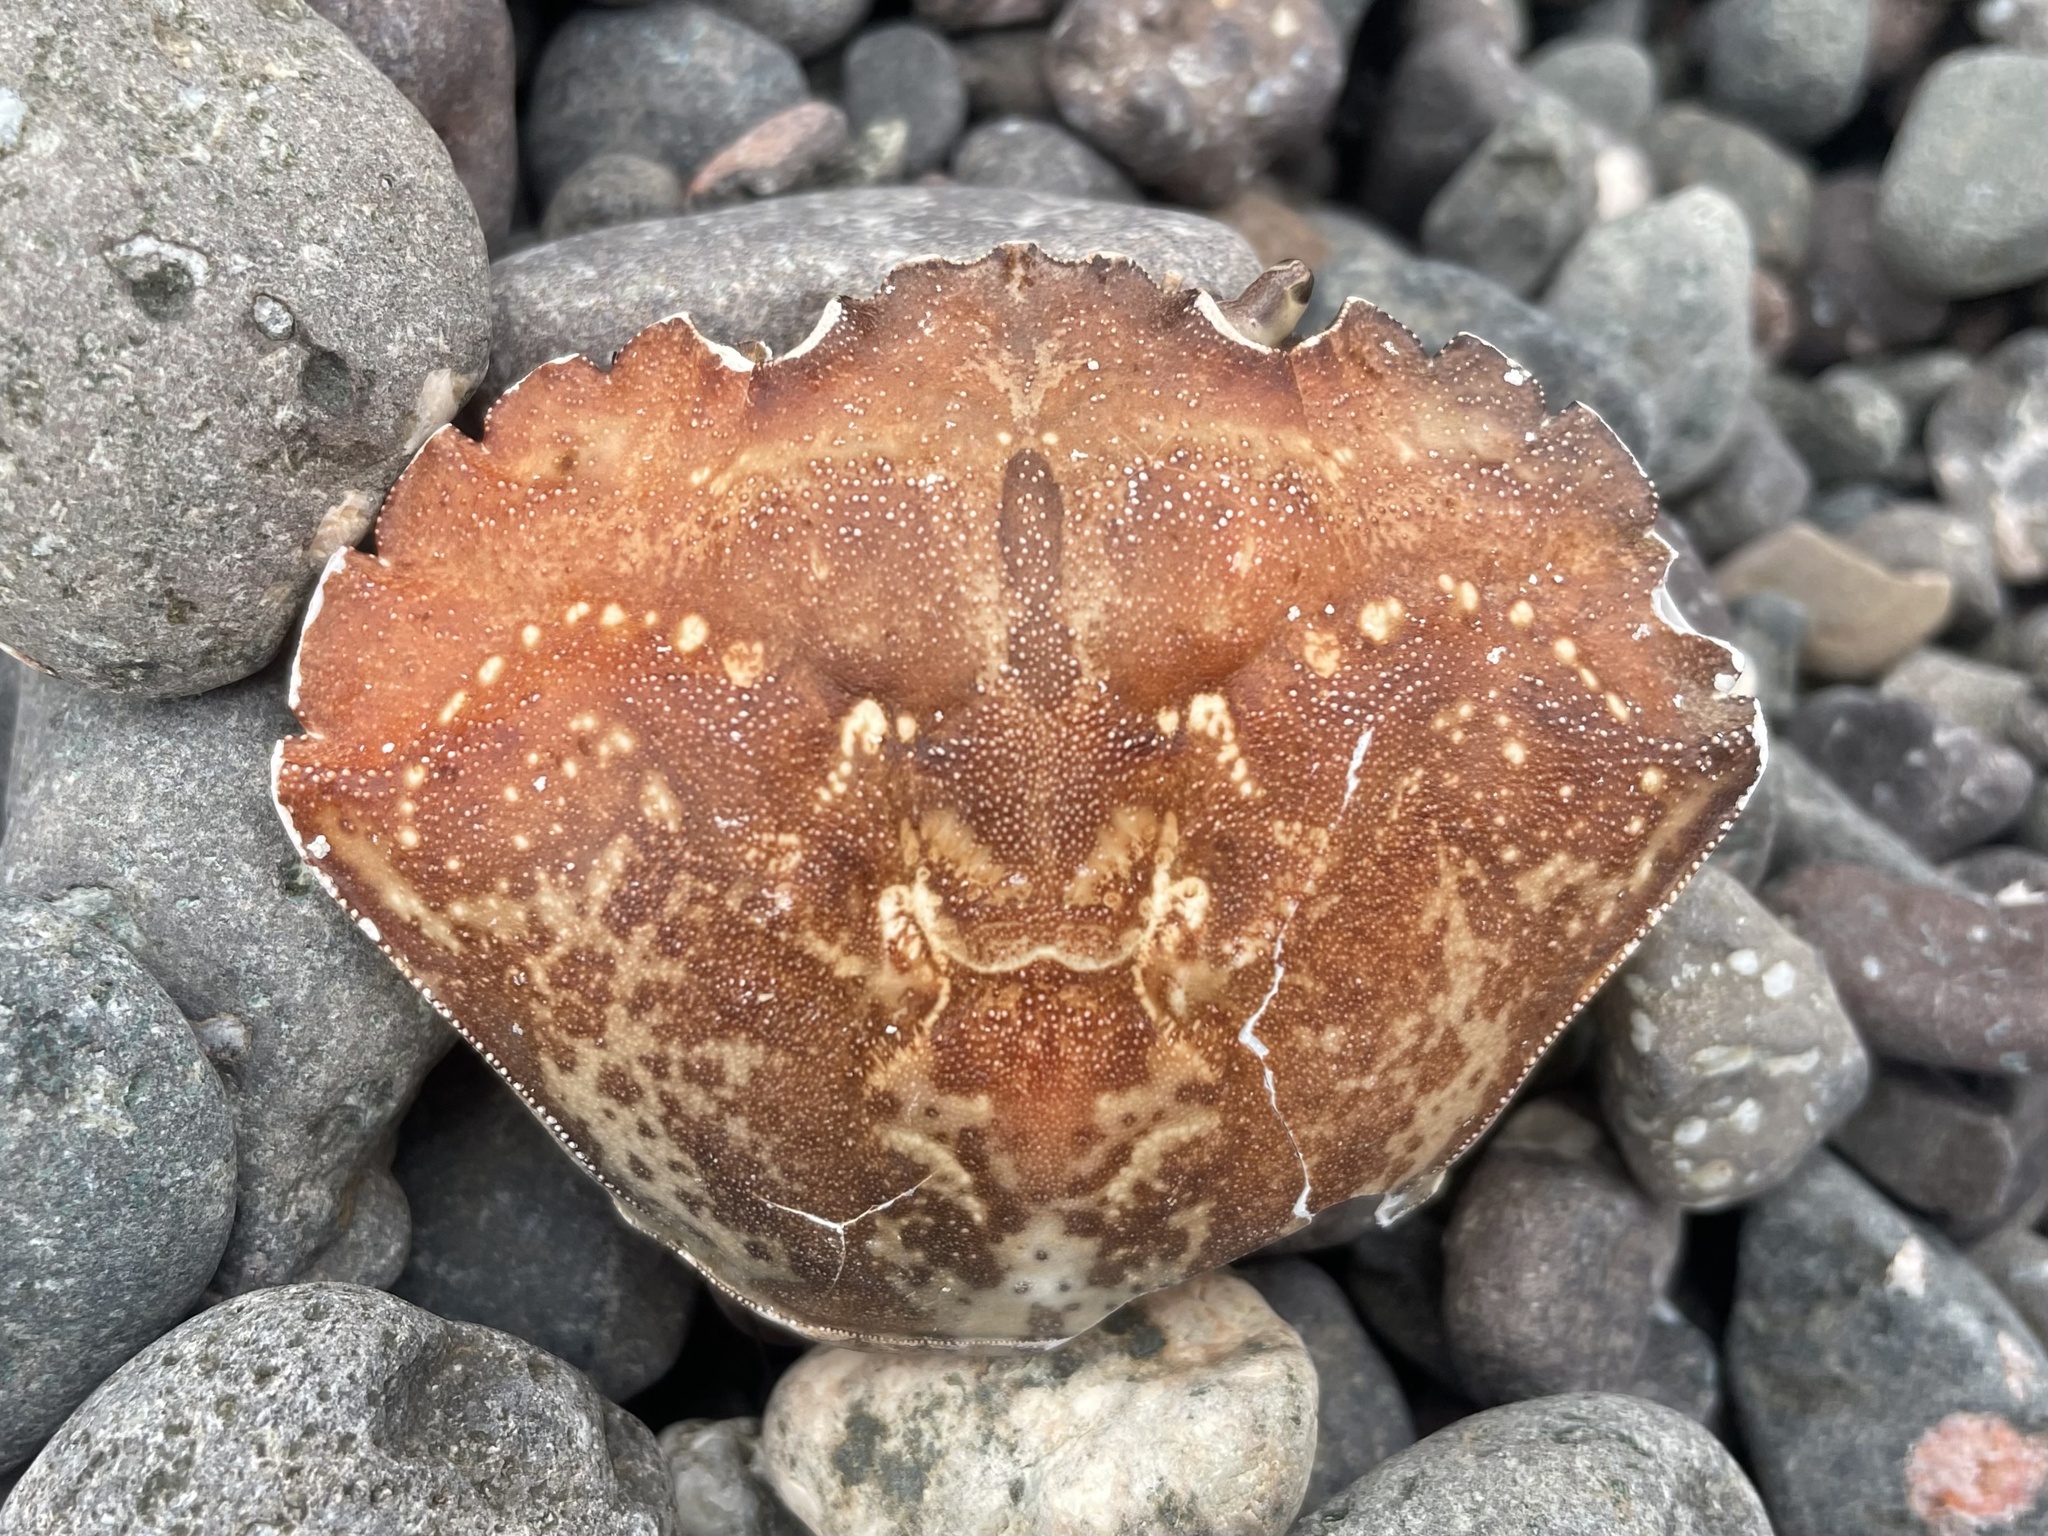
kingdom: Animalia
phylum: Arthropoda
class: Malacostraca
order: Decapoda
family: Carcinidae
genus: Carcinus
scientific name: Carcinus maenas
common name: European green crab
